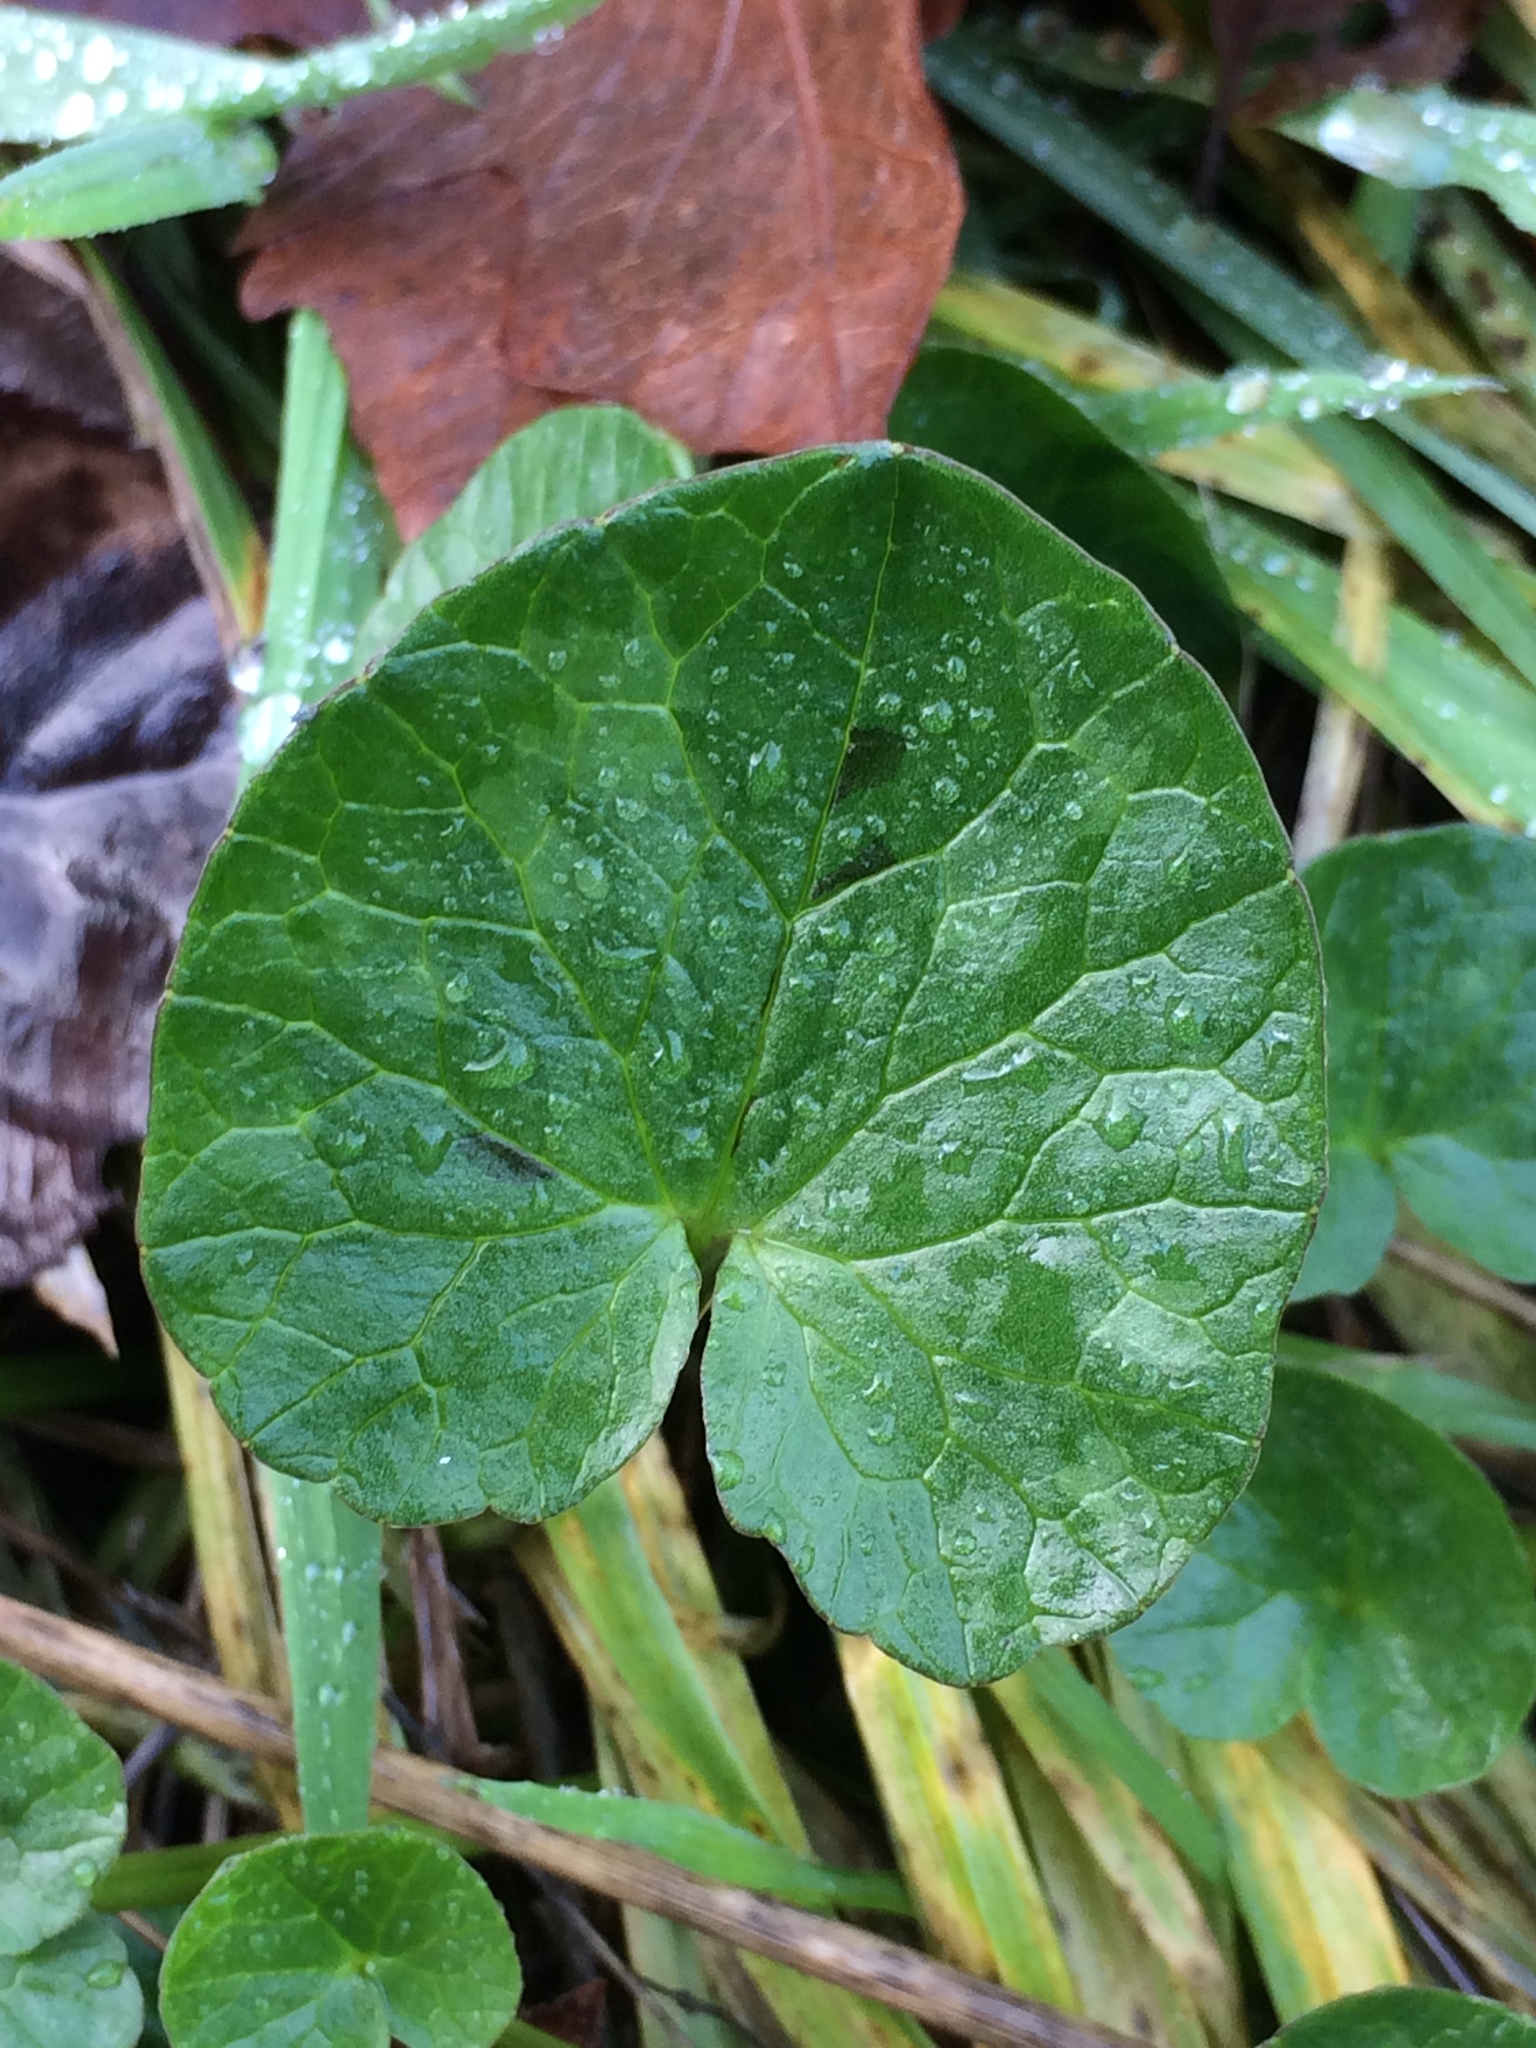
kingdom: Plantae
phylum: Tracheophyta
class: Magnoliopsida
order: Ranunculales
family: Ranunculaceae
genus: Ficaria
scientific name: Ficaria verna
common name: Lesser celandine
